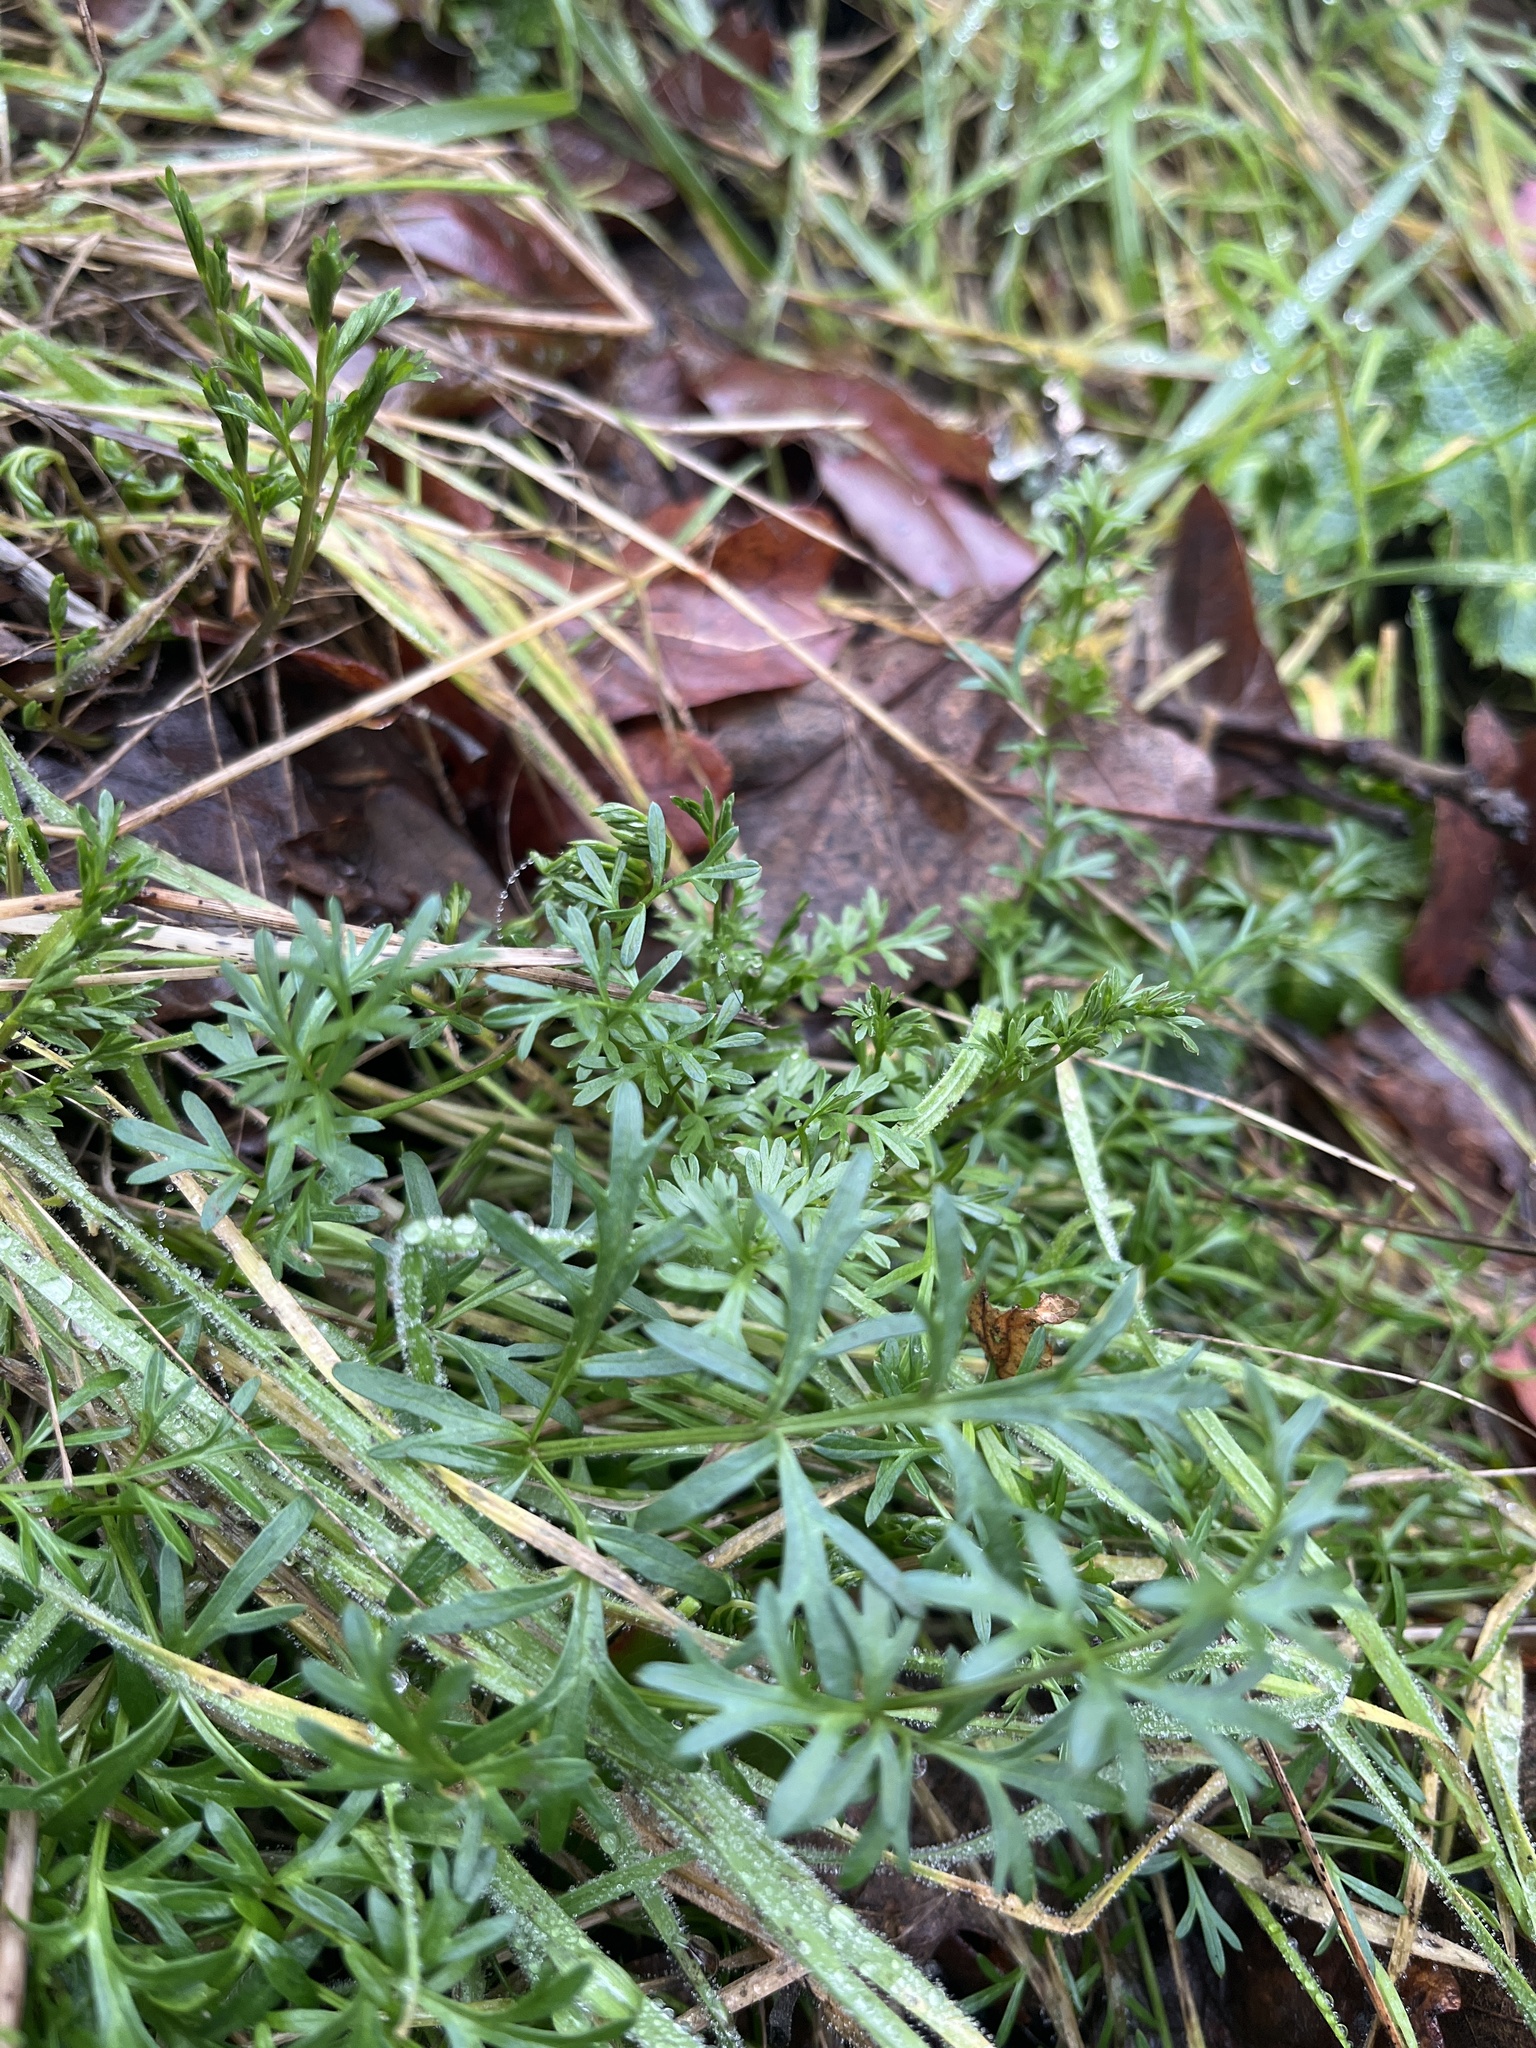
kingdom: Plantae
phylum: Tracheophyta
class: Magnoliopsida
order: Apiales
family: Apiaceae
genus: Lomatium
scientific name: Lomatium utriculatum
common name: Fine-leaf desert-parsley
